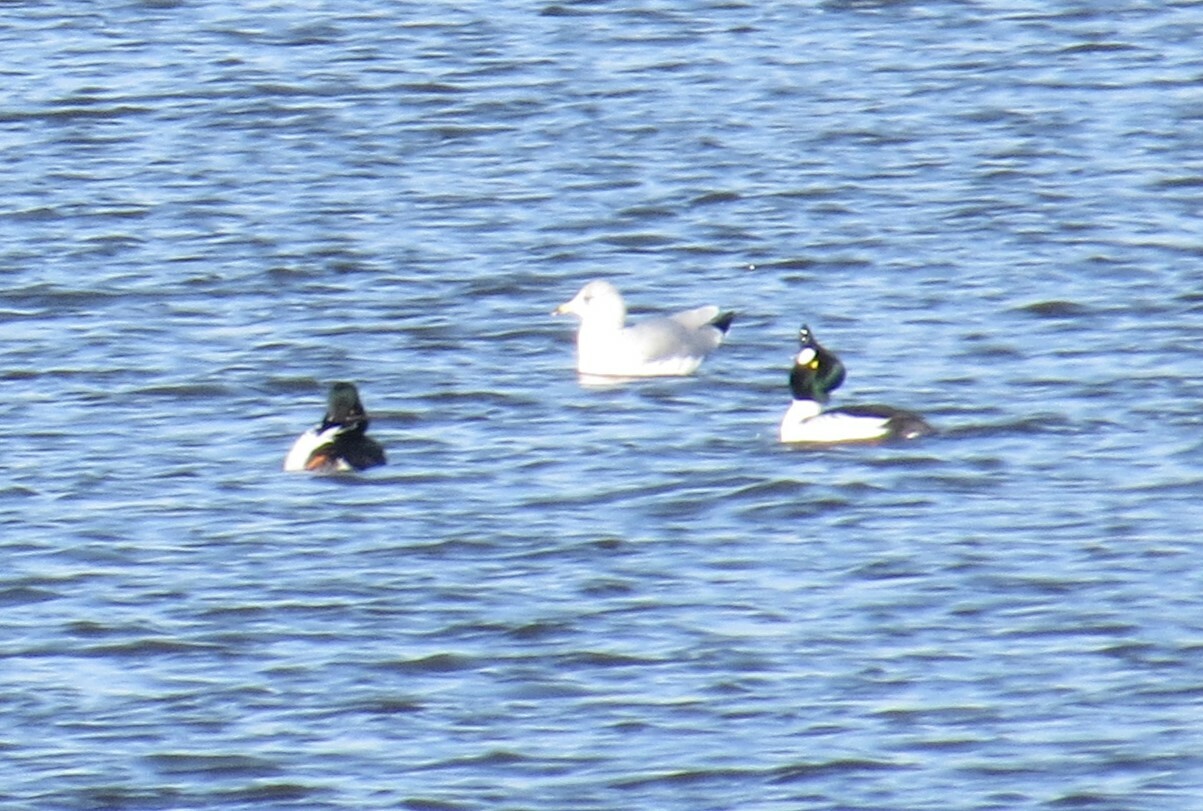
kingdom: Animalia
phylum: Chordata
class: Aves
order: Anseriformes
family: Anatidae
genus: Bucephala
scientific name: Bucephala clangula
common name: Common goldeneye
